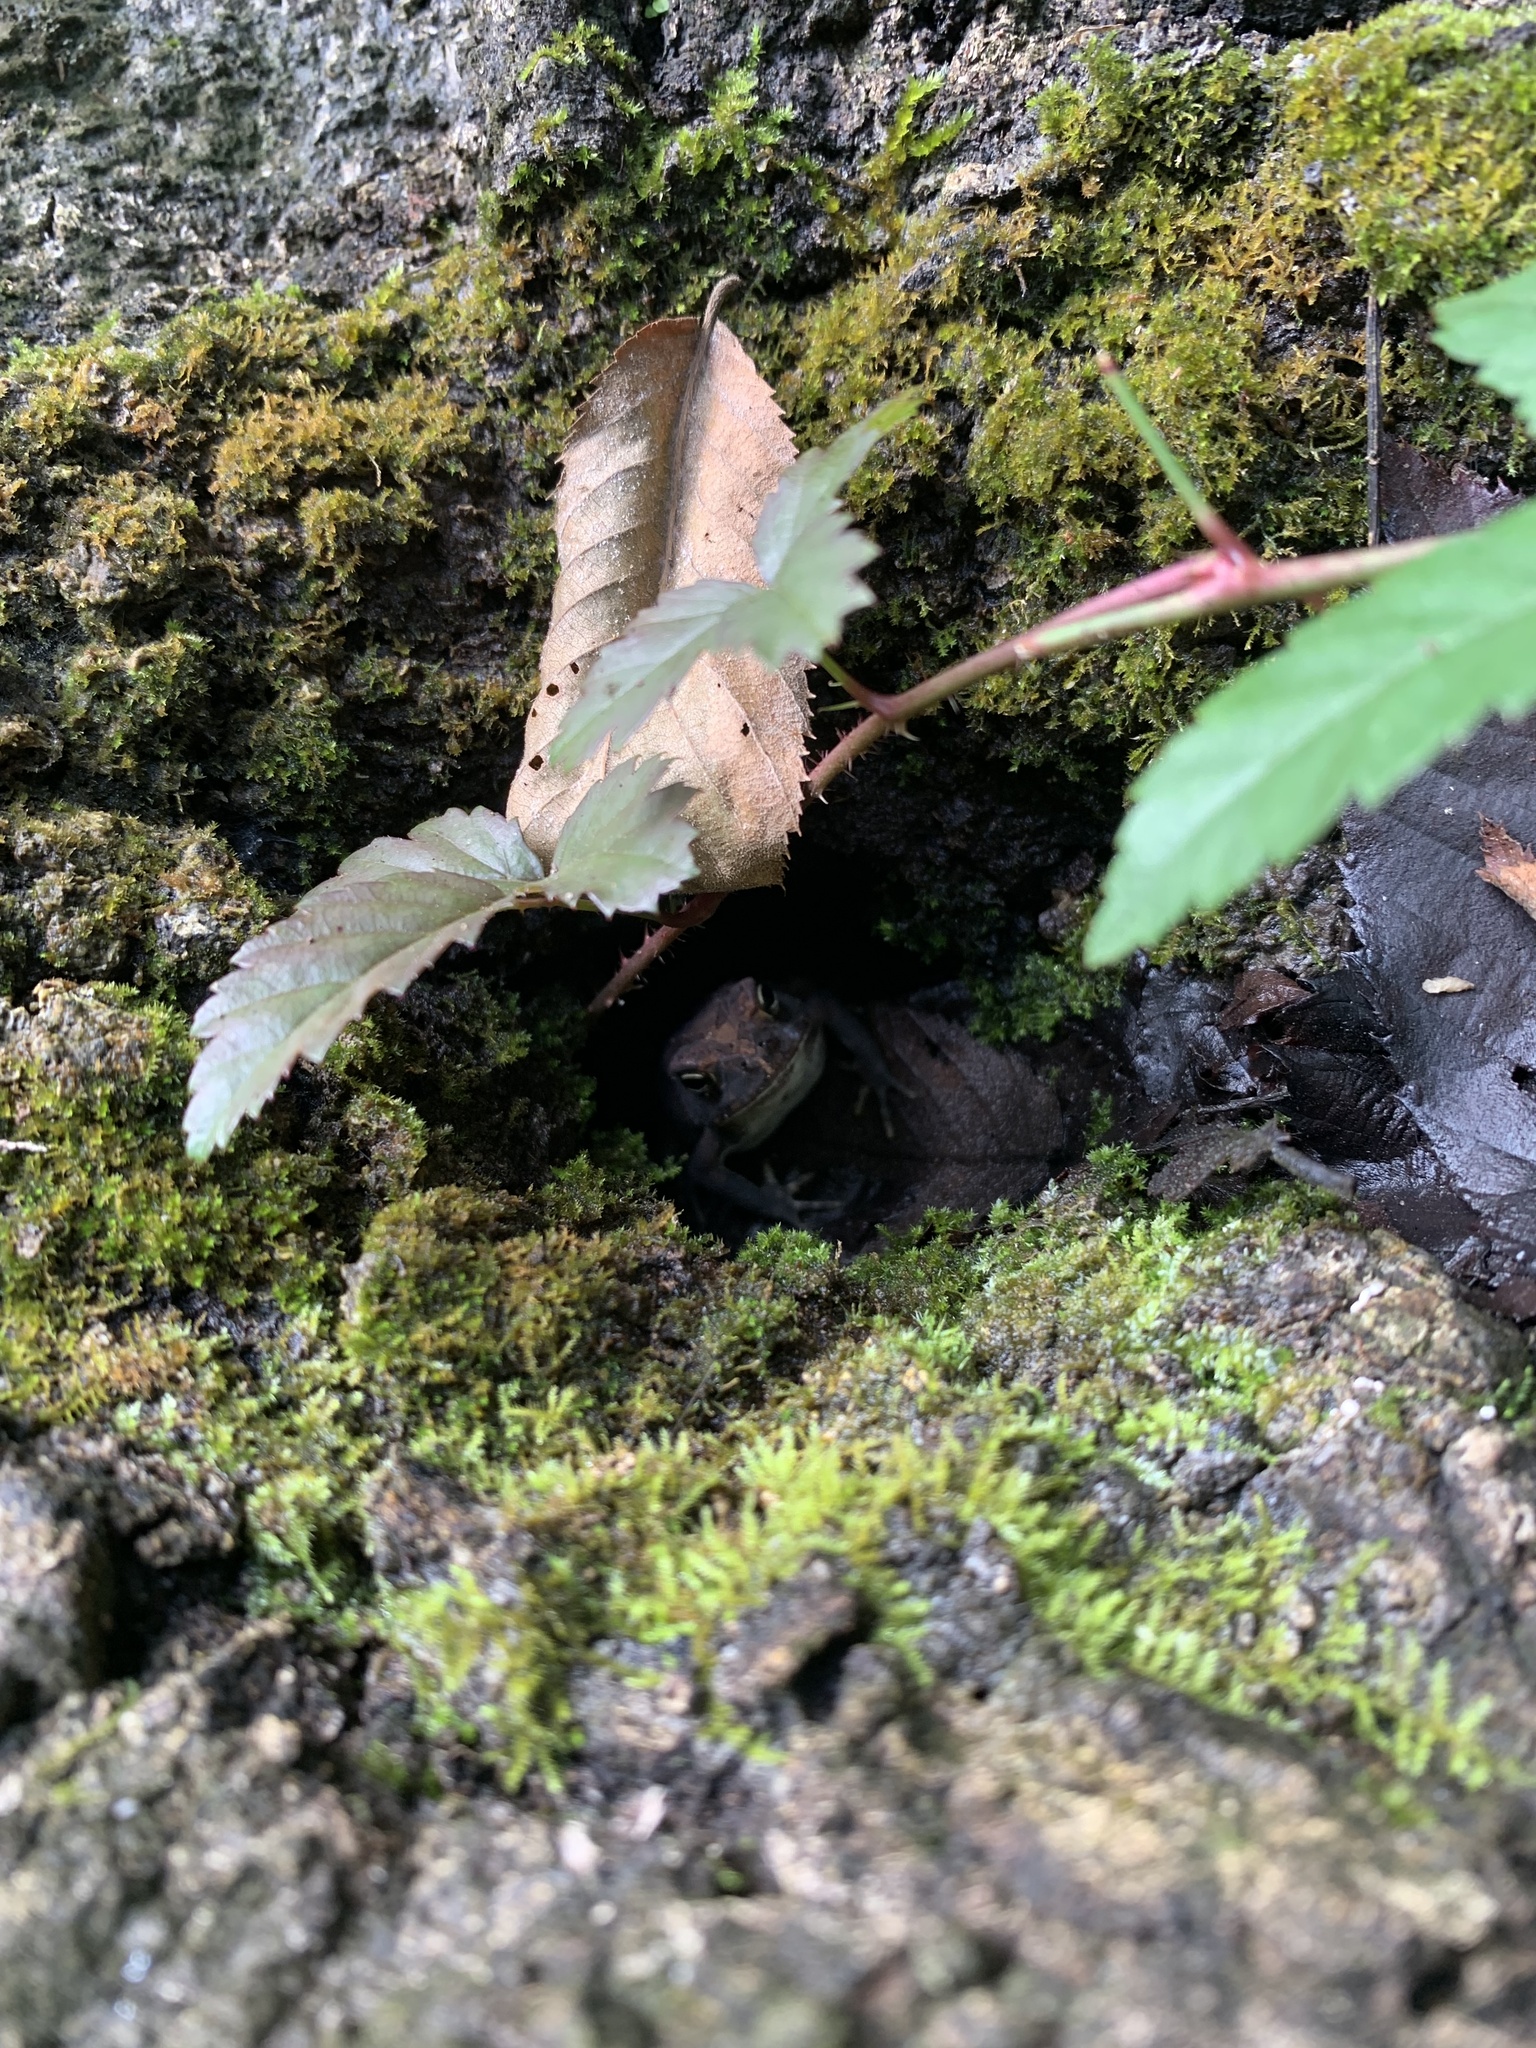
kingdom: Animalia
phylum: Chordata
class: Amphibia
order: Anura
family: Bufonidae
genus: Anaxyrus
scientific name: Anaxyrus terrestris
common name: Southern toad
